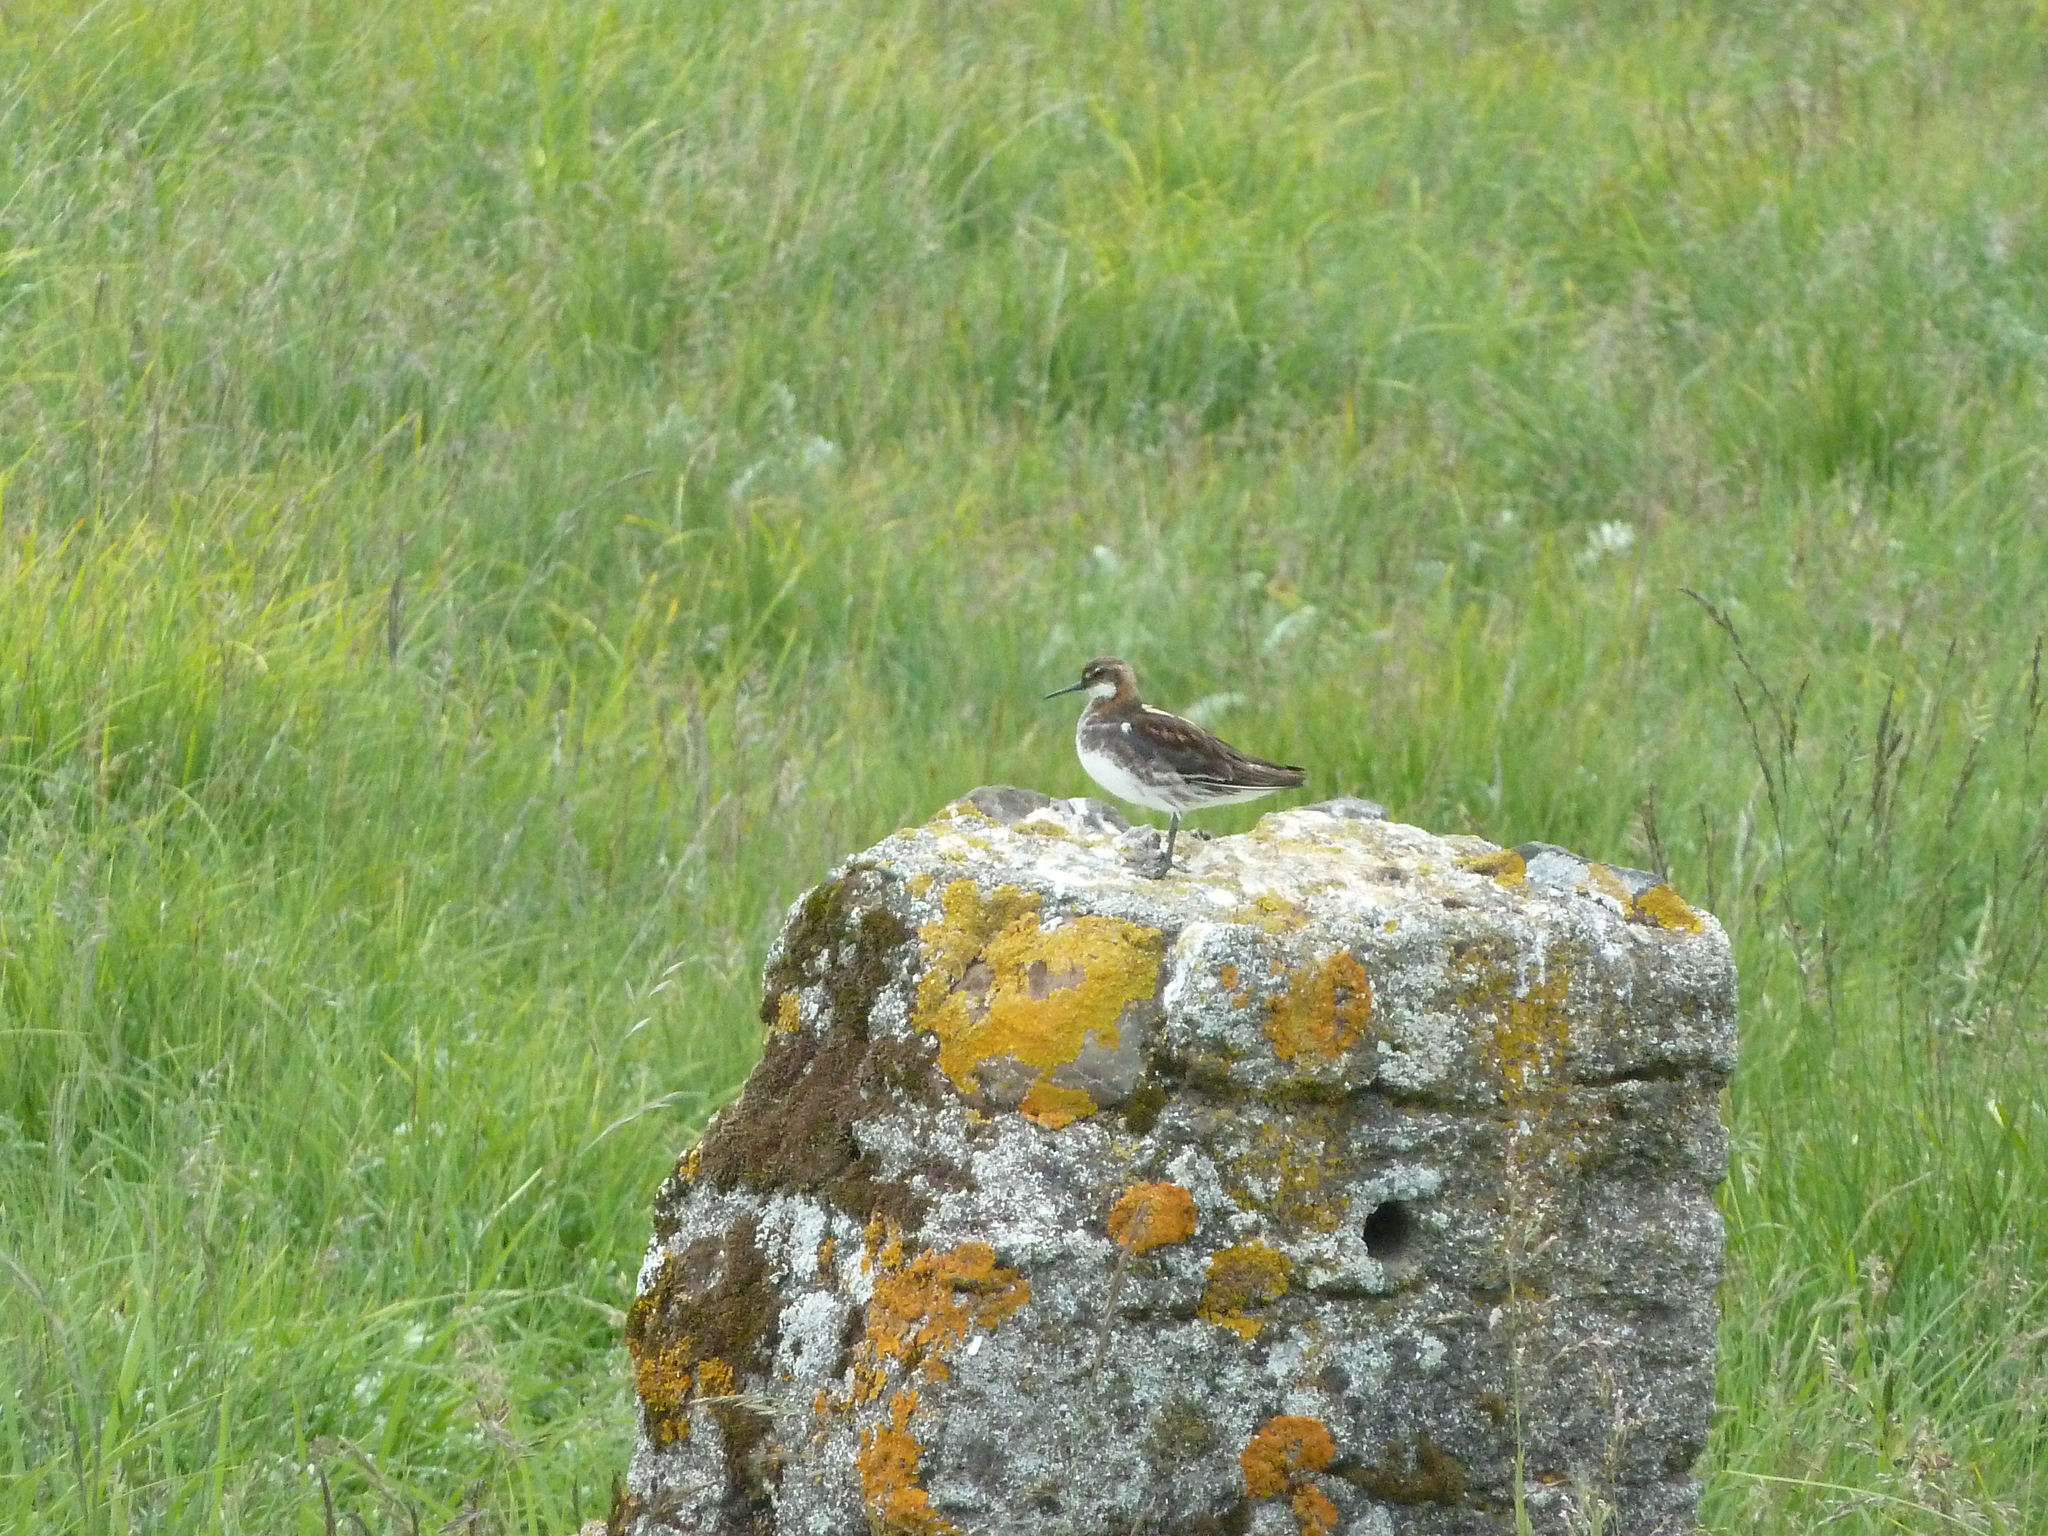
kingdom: Animalia
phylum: Chordata
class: Aves
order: Charadriiformes
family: Scolopacidae
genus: Phalaropus
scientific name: Phalaropus lobatus
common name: Red-necked phalarope
